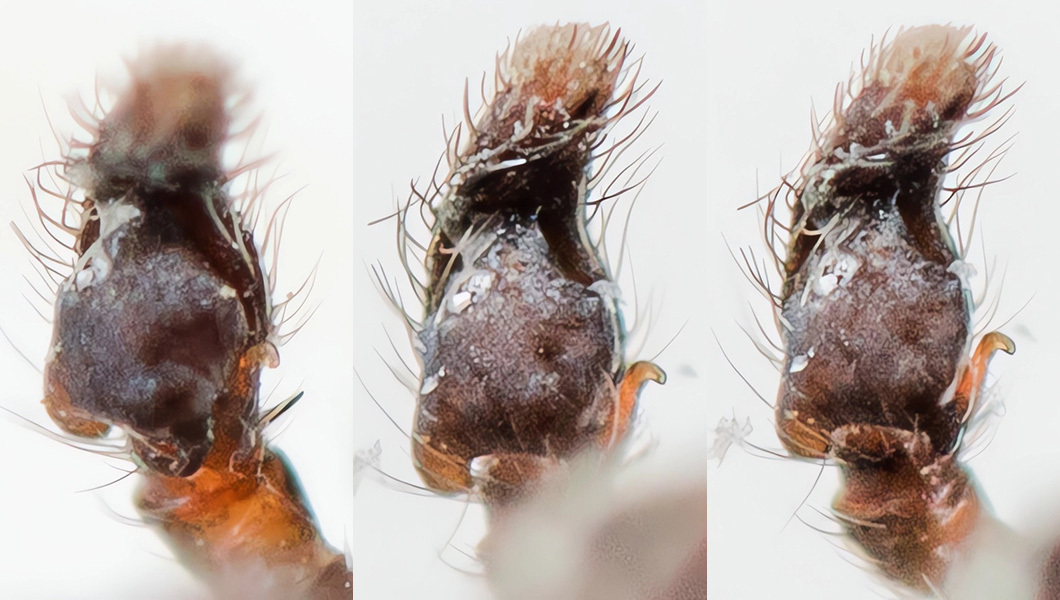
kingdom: Animalia
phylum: Arthropoda
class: Arachnida
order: Araneae
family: Salticidae
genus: Heliophanus
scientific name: Heliophanus forcipifer
